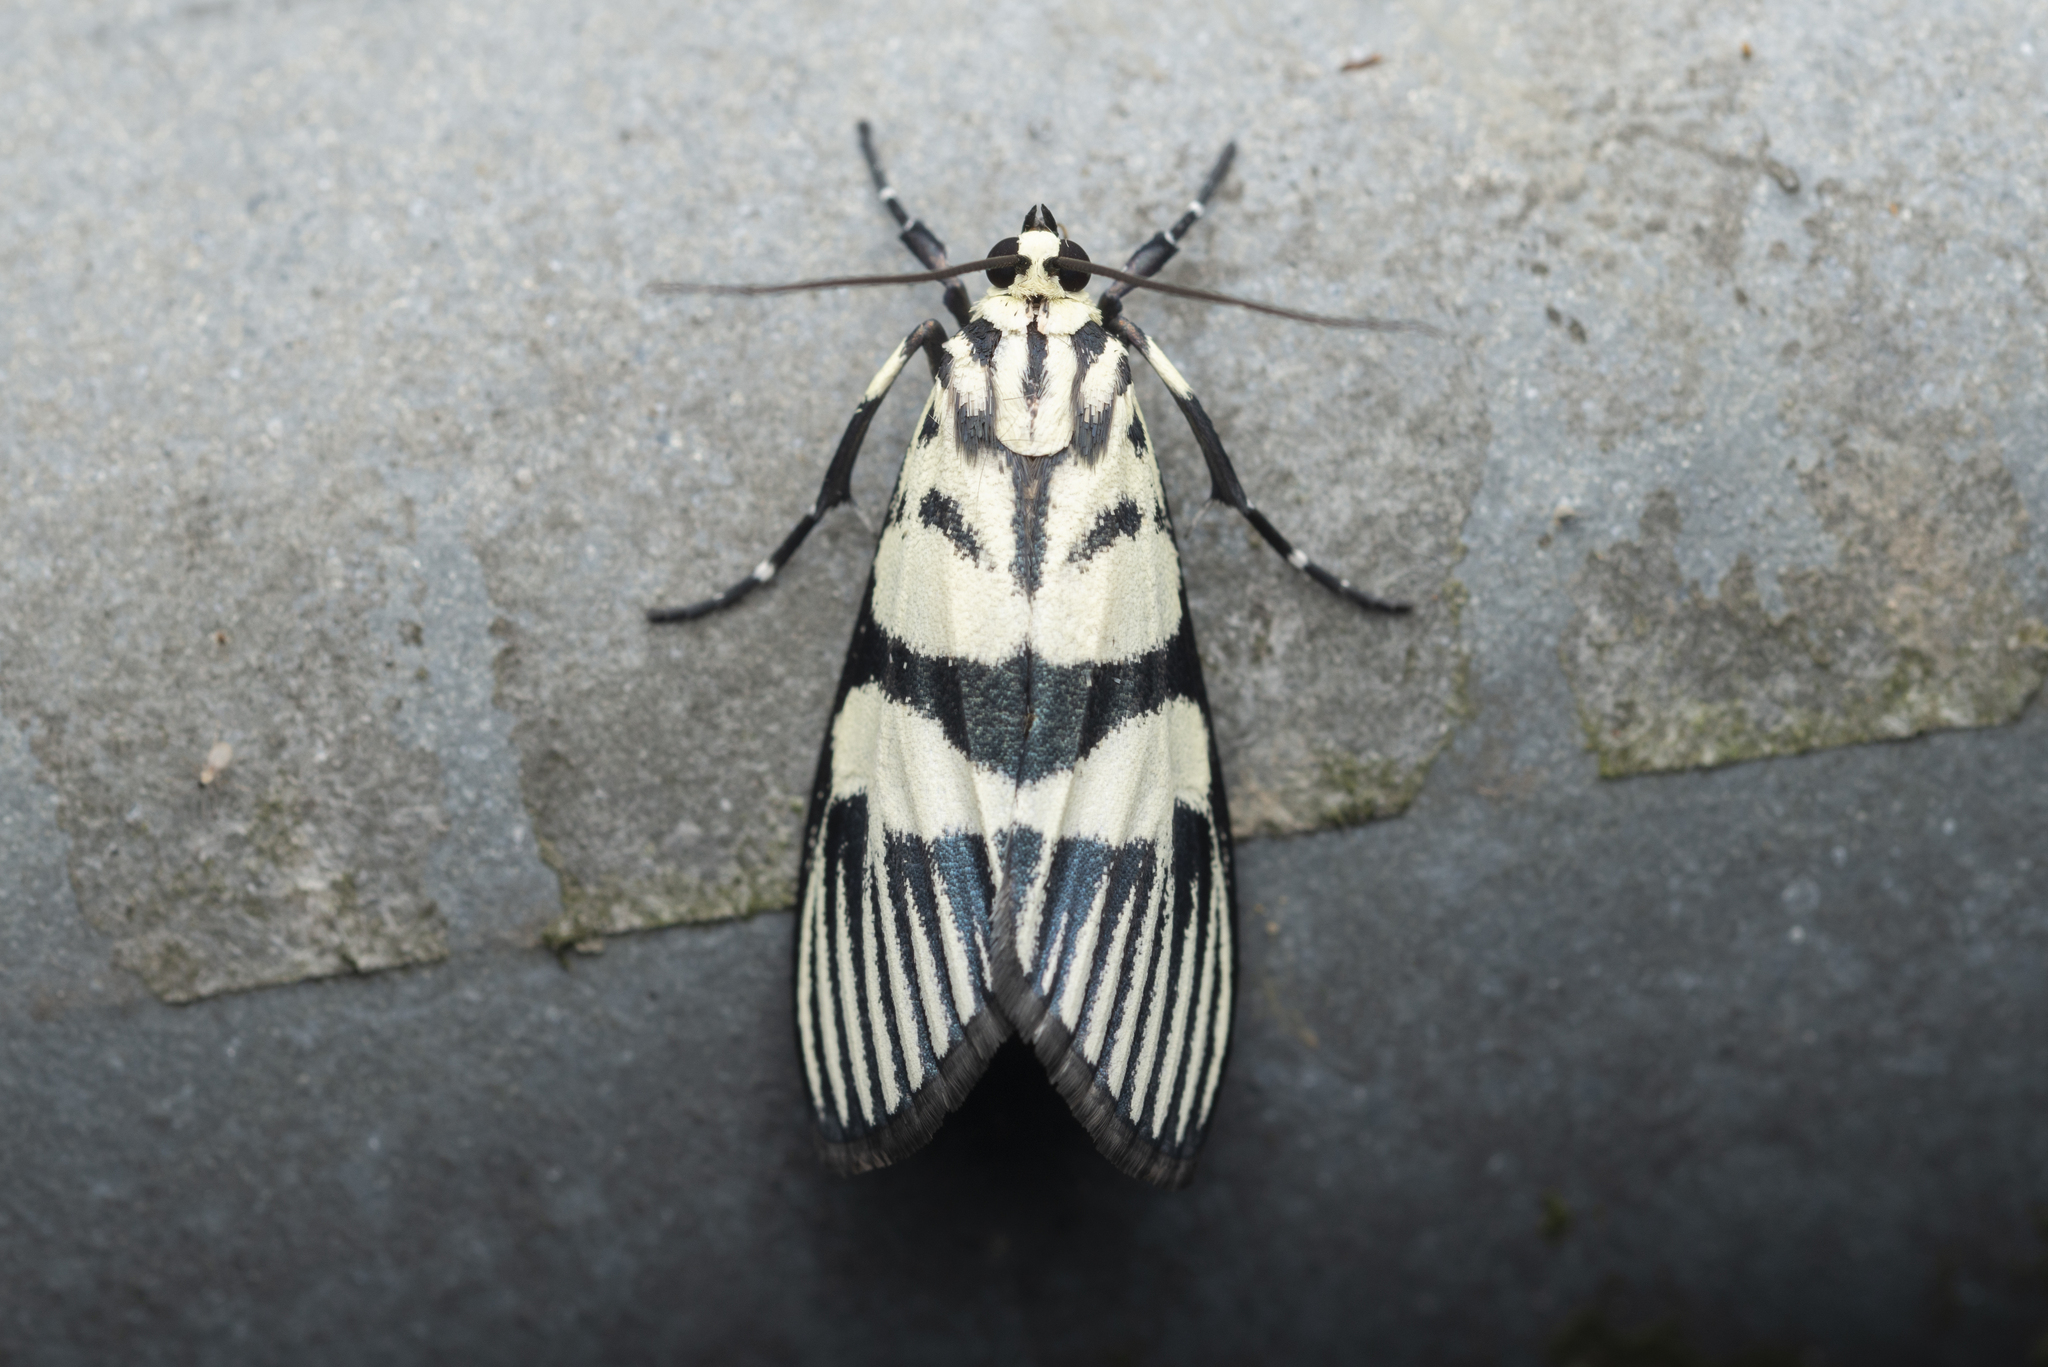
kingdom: Animalia
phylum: Arthropoda
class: Insecta
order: Lepidoptera
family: Crambidae
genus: Heortia
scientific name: Heortia vitessoides
